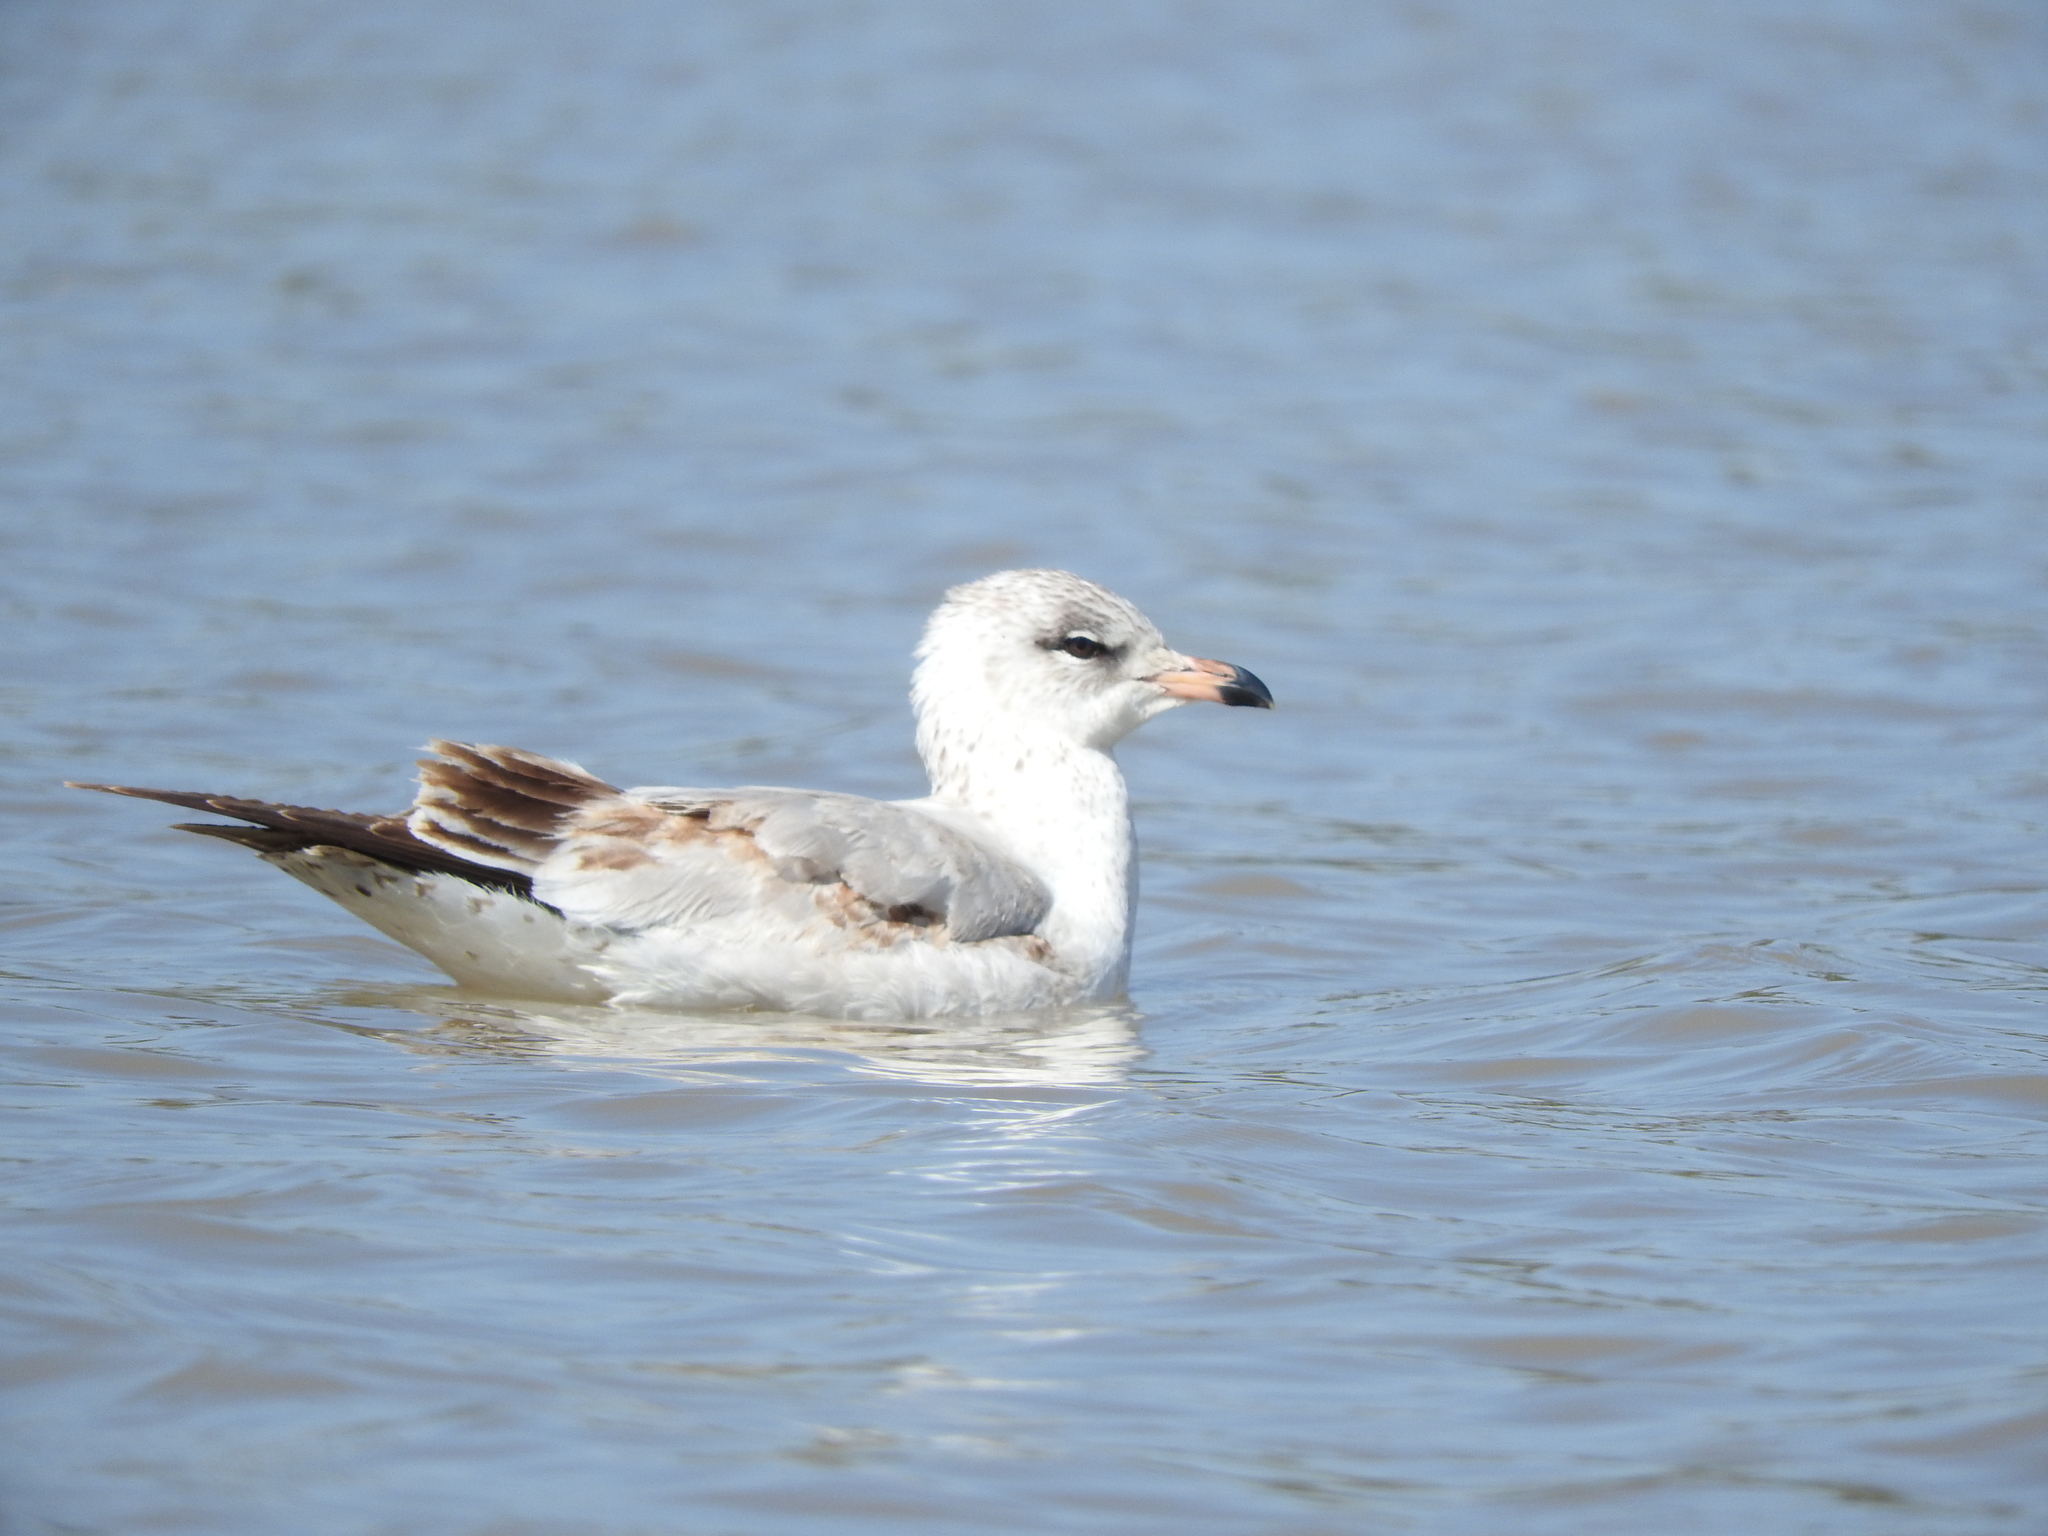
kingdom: Animalia
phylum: Chordata
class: Aves
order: Charadriiformes
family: Laridae
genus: Larus
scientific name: Larus delawarensis
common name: Ring-billed gull
